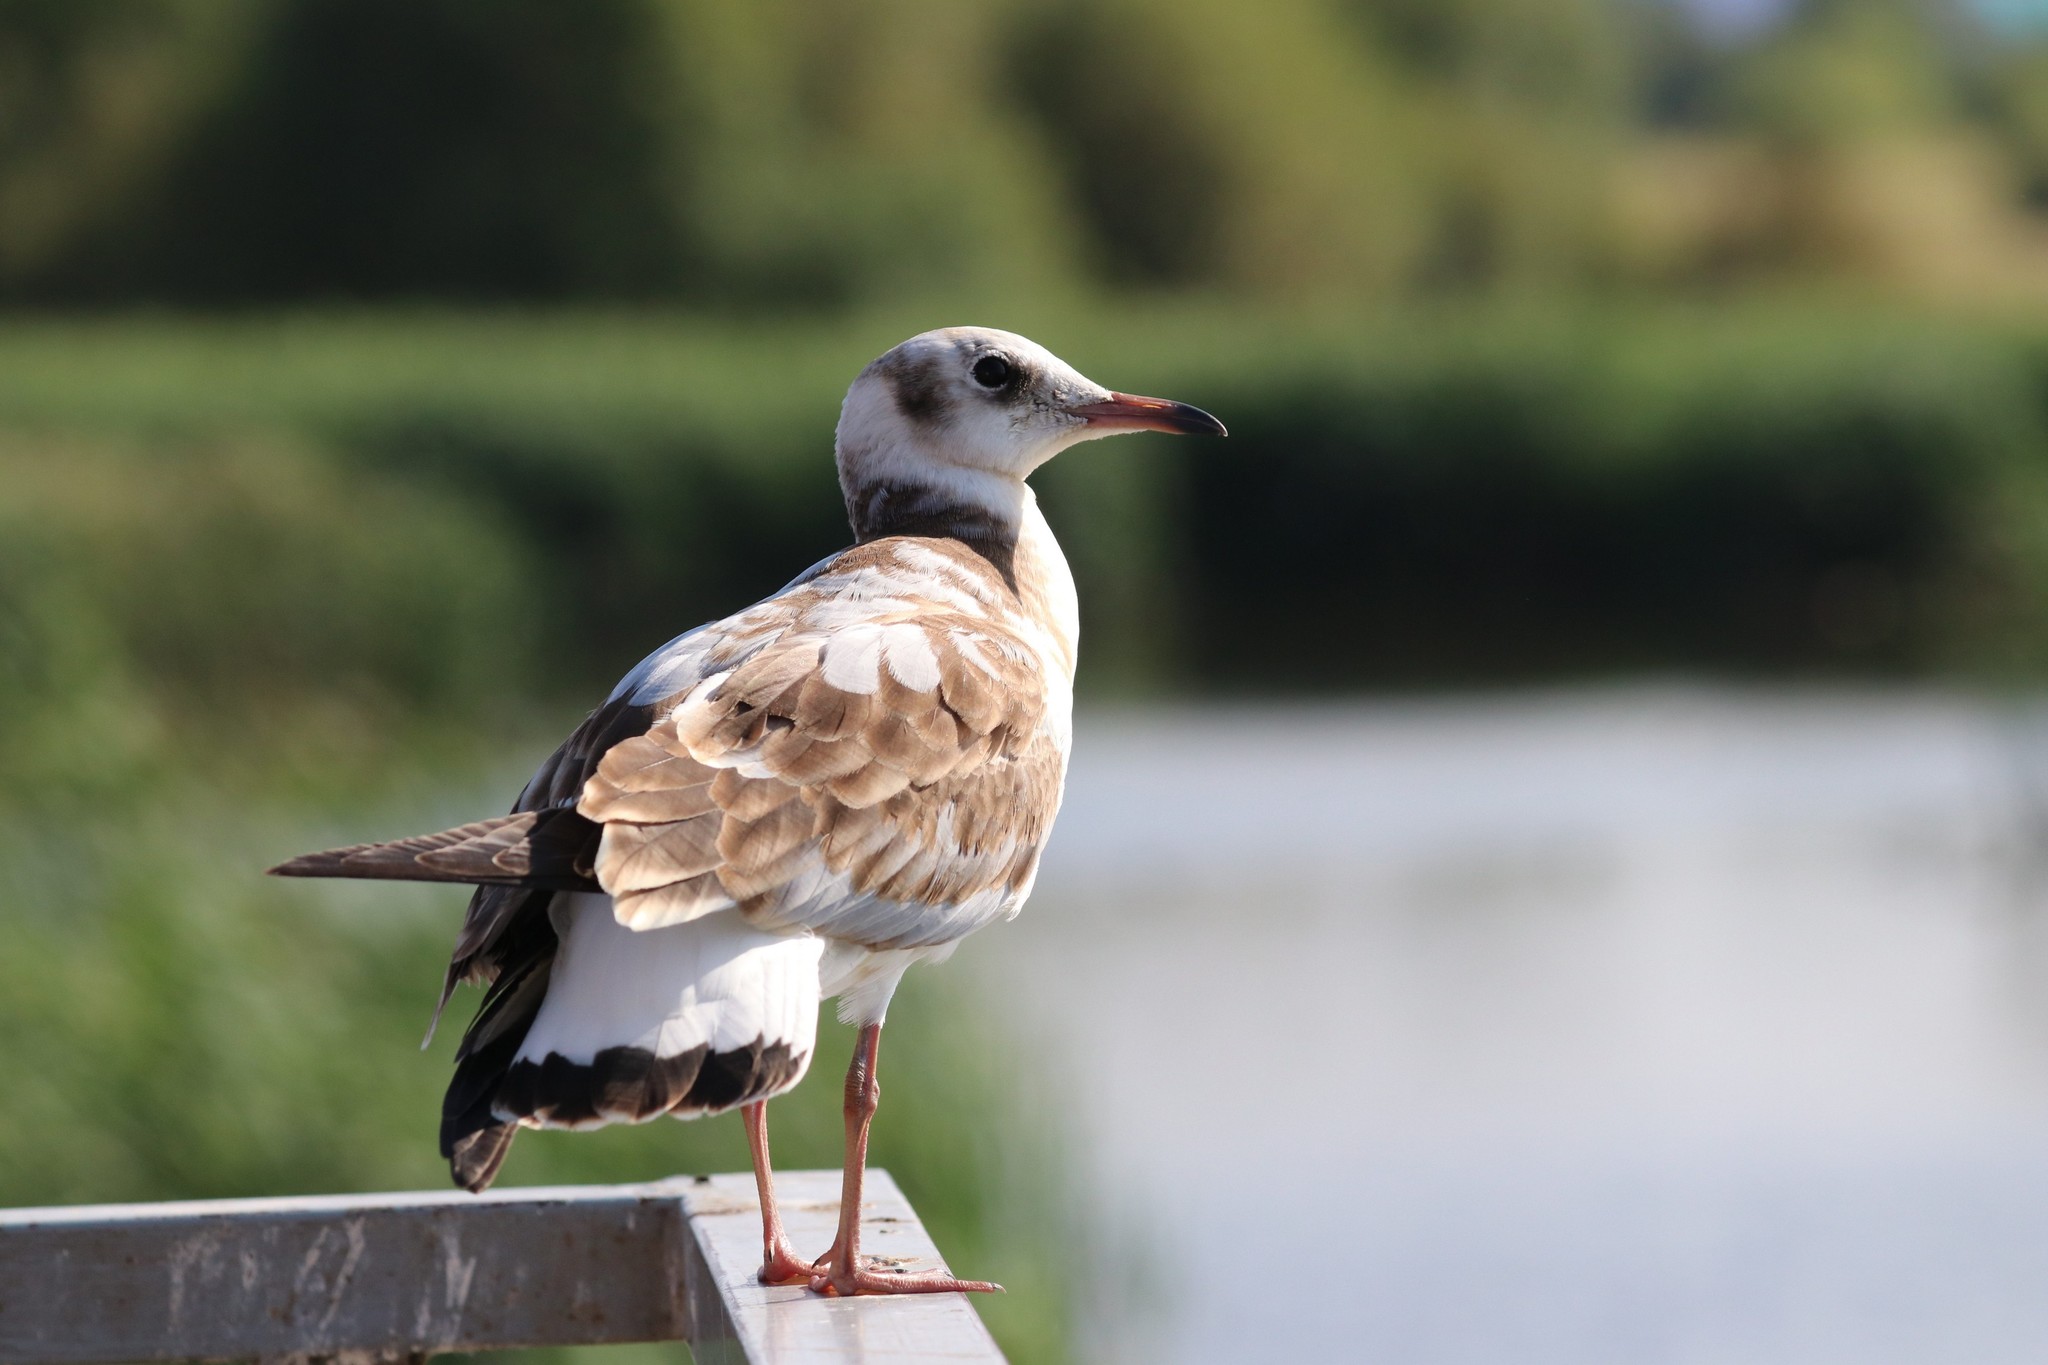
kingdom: Animalia
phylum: Chordata
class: Aves
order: Charadriiformes
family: Laridae
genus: Chroicocephalus
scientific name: Chroicocephalus ridibundus
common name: Black-headed gull
